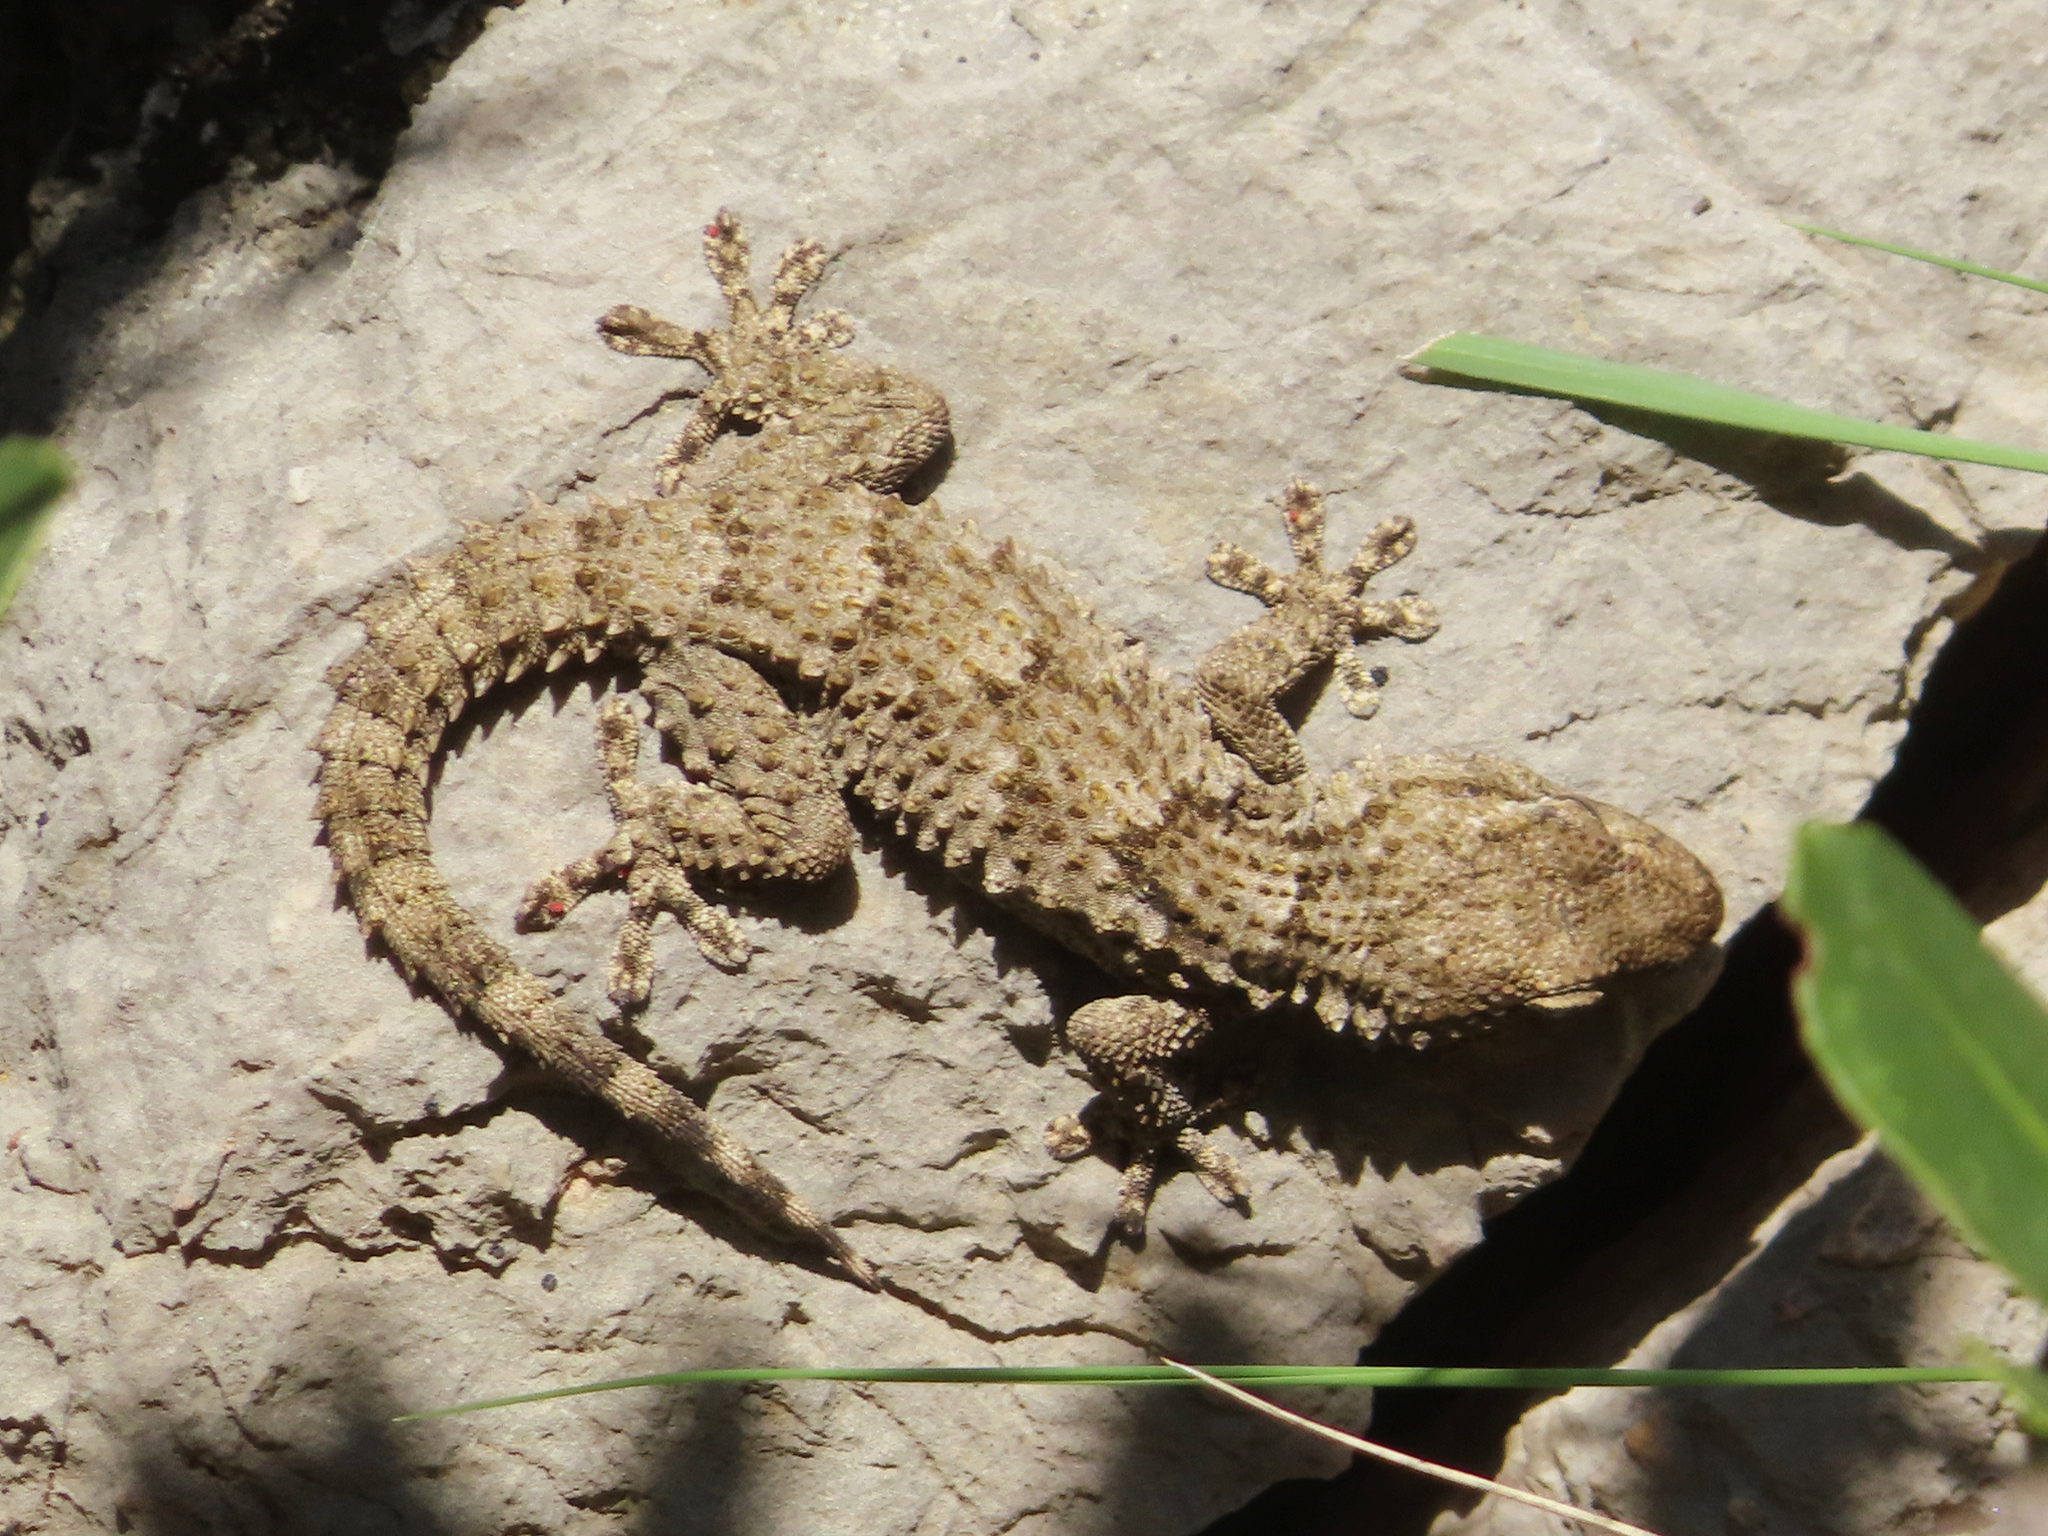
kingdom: Animalia
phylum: Chordata
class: Squamata
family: Phyllodactylidae
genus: Tarentola
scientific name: Tarentola mauritanica
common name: Moorish gecko
